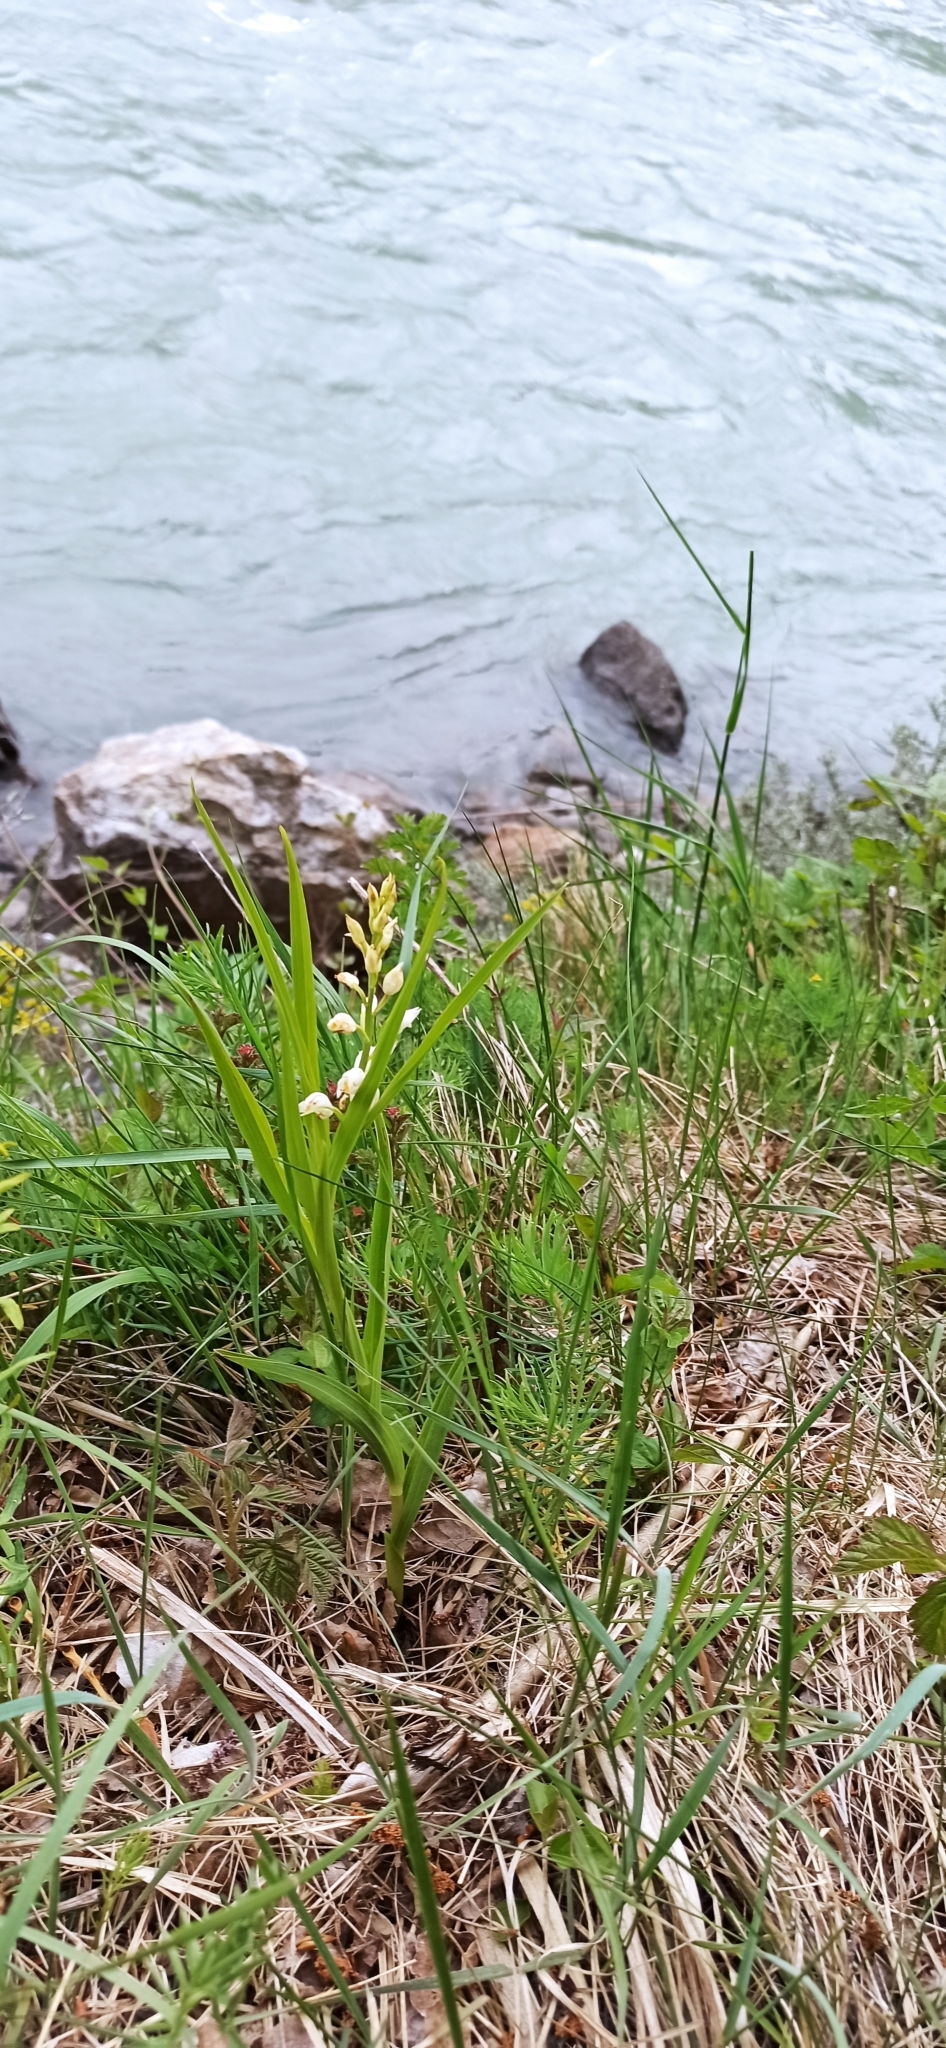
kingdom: Plantae
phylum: Tracheophyta
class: Liliopsida
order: Asparagales
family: Orchidaceae
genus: Cephalanthera
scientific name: Cephalanthera longifolia
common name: Narrow-leaved helleborine
